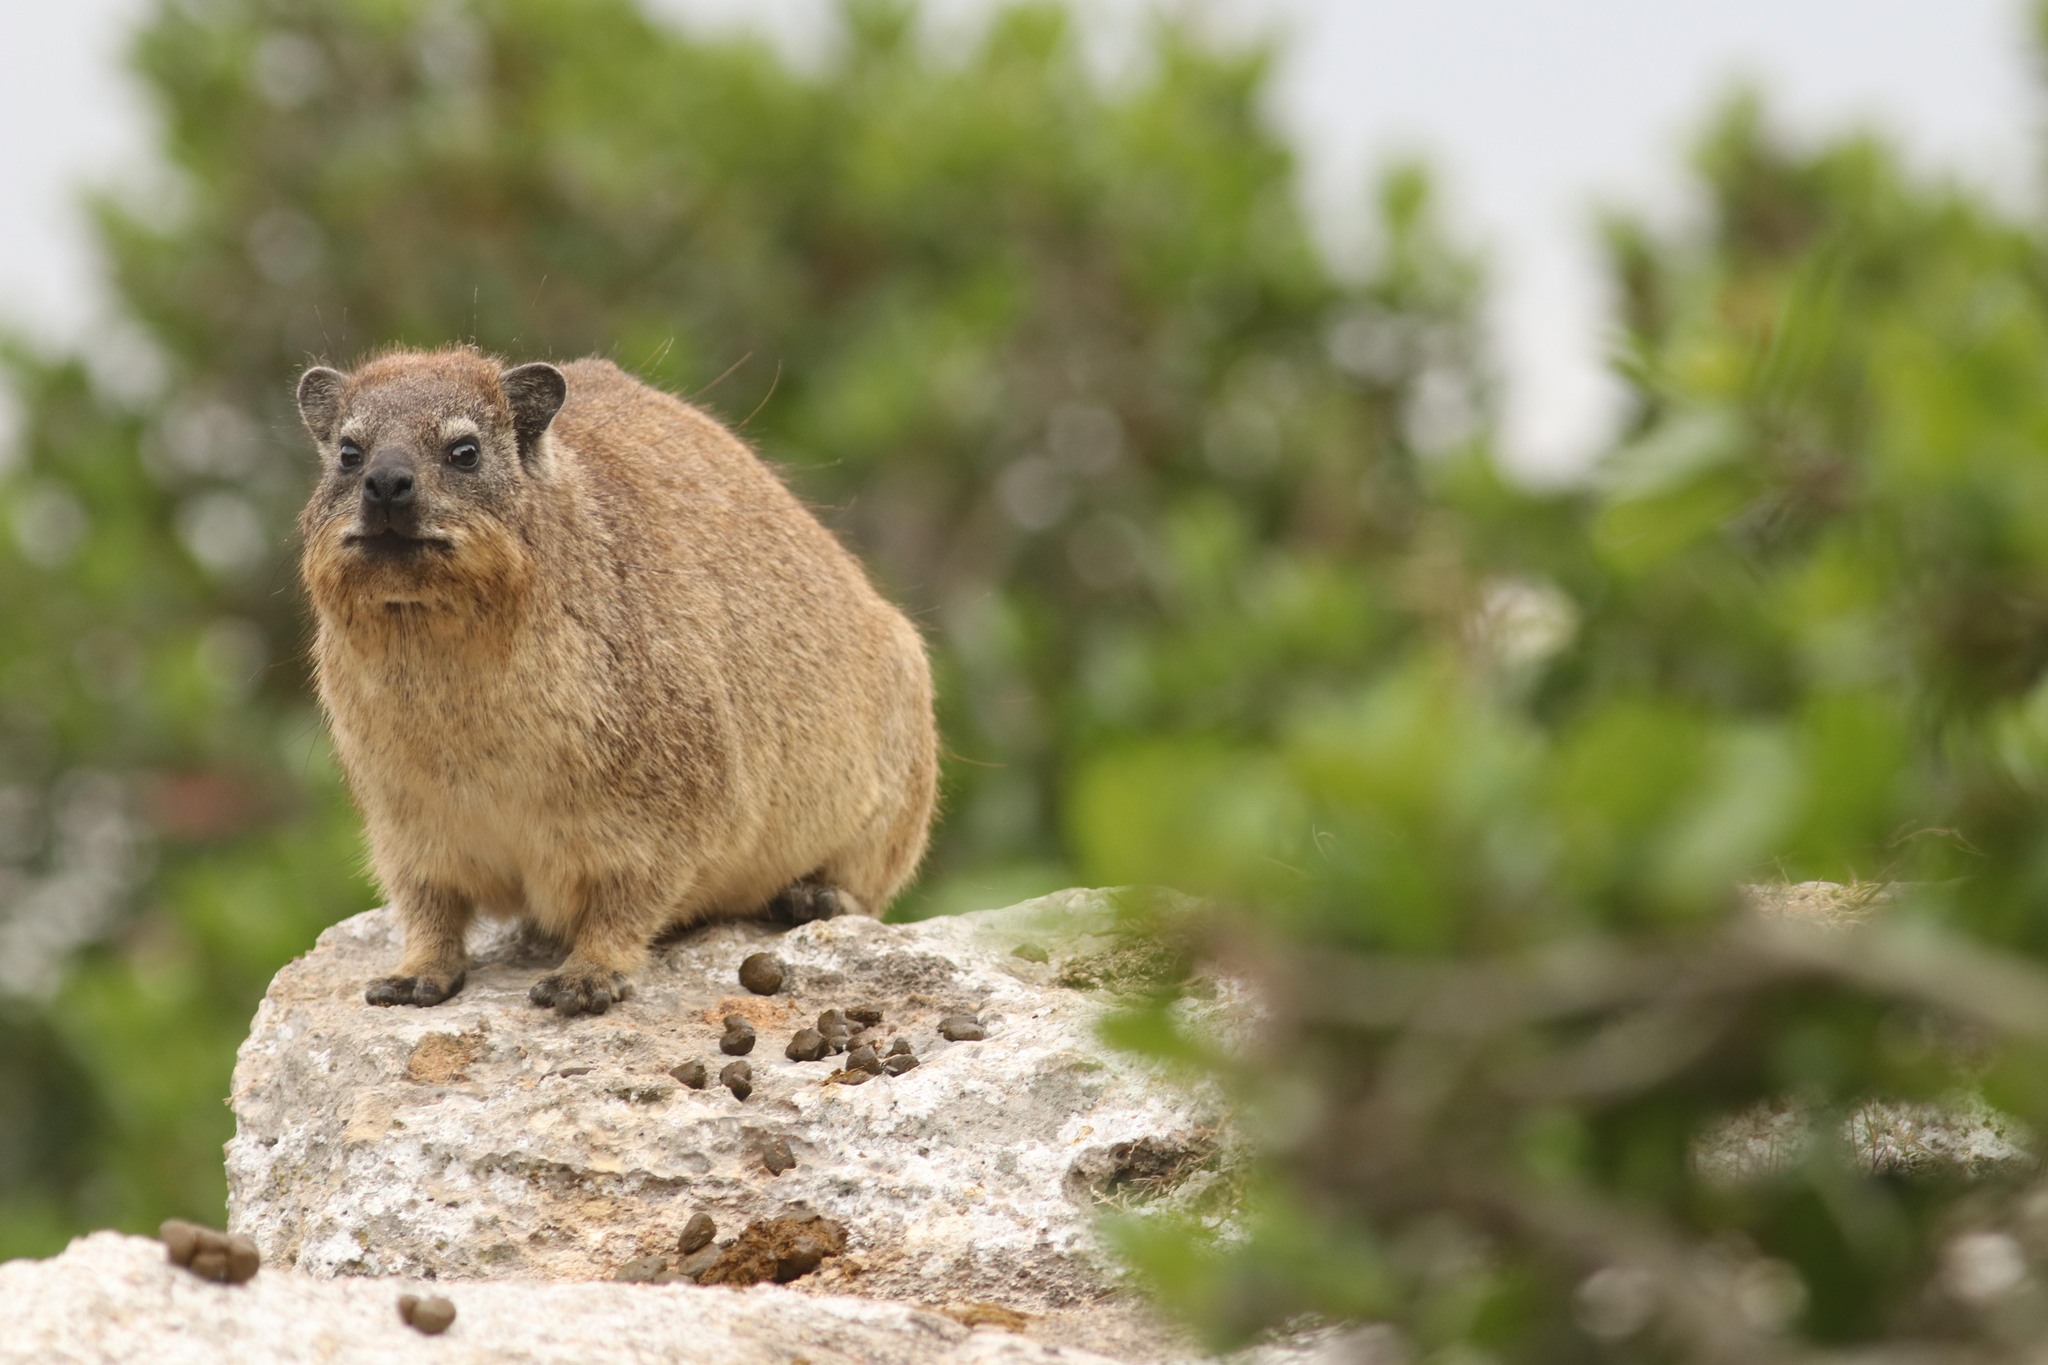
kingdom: Animalia
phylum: Chordata
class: Mammalia
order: Hyracoidea
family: Procaviidae
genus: Procavia
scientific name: Procavia capensis
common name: Rock hyrax
